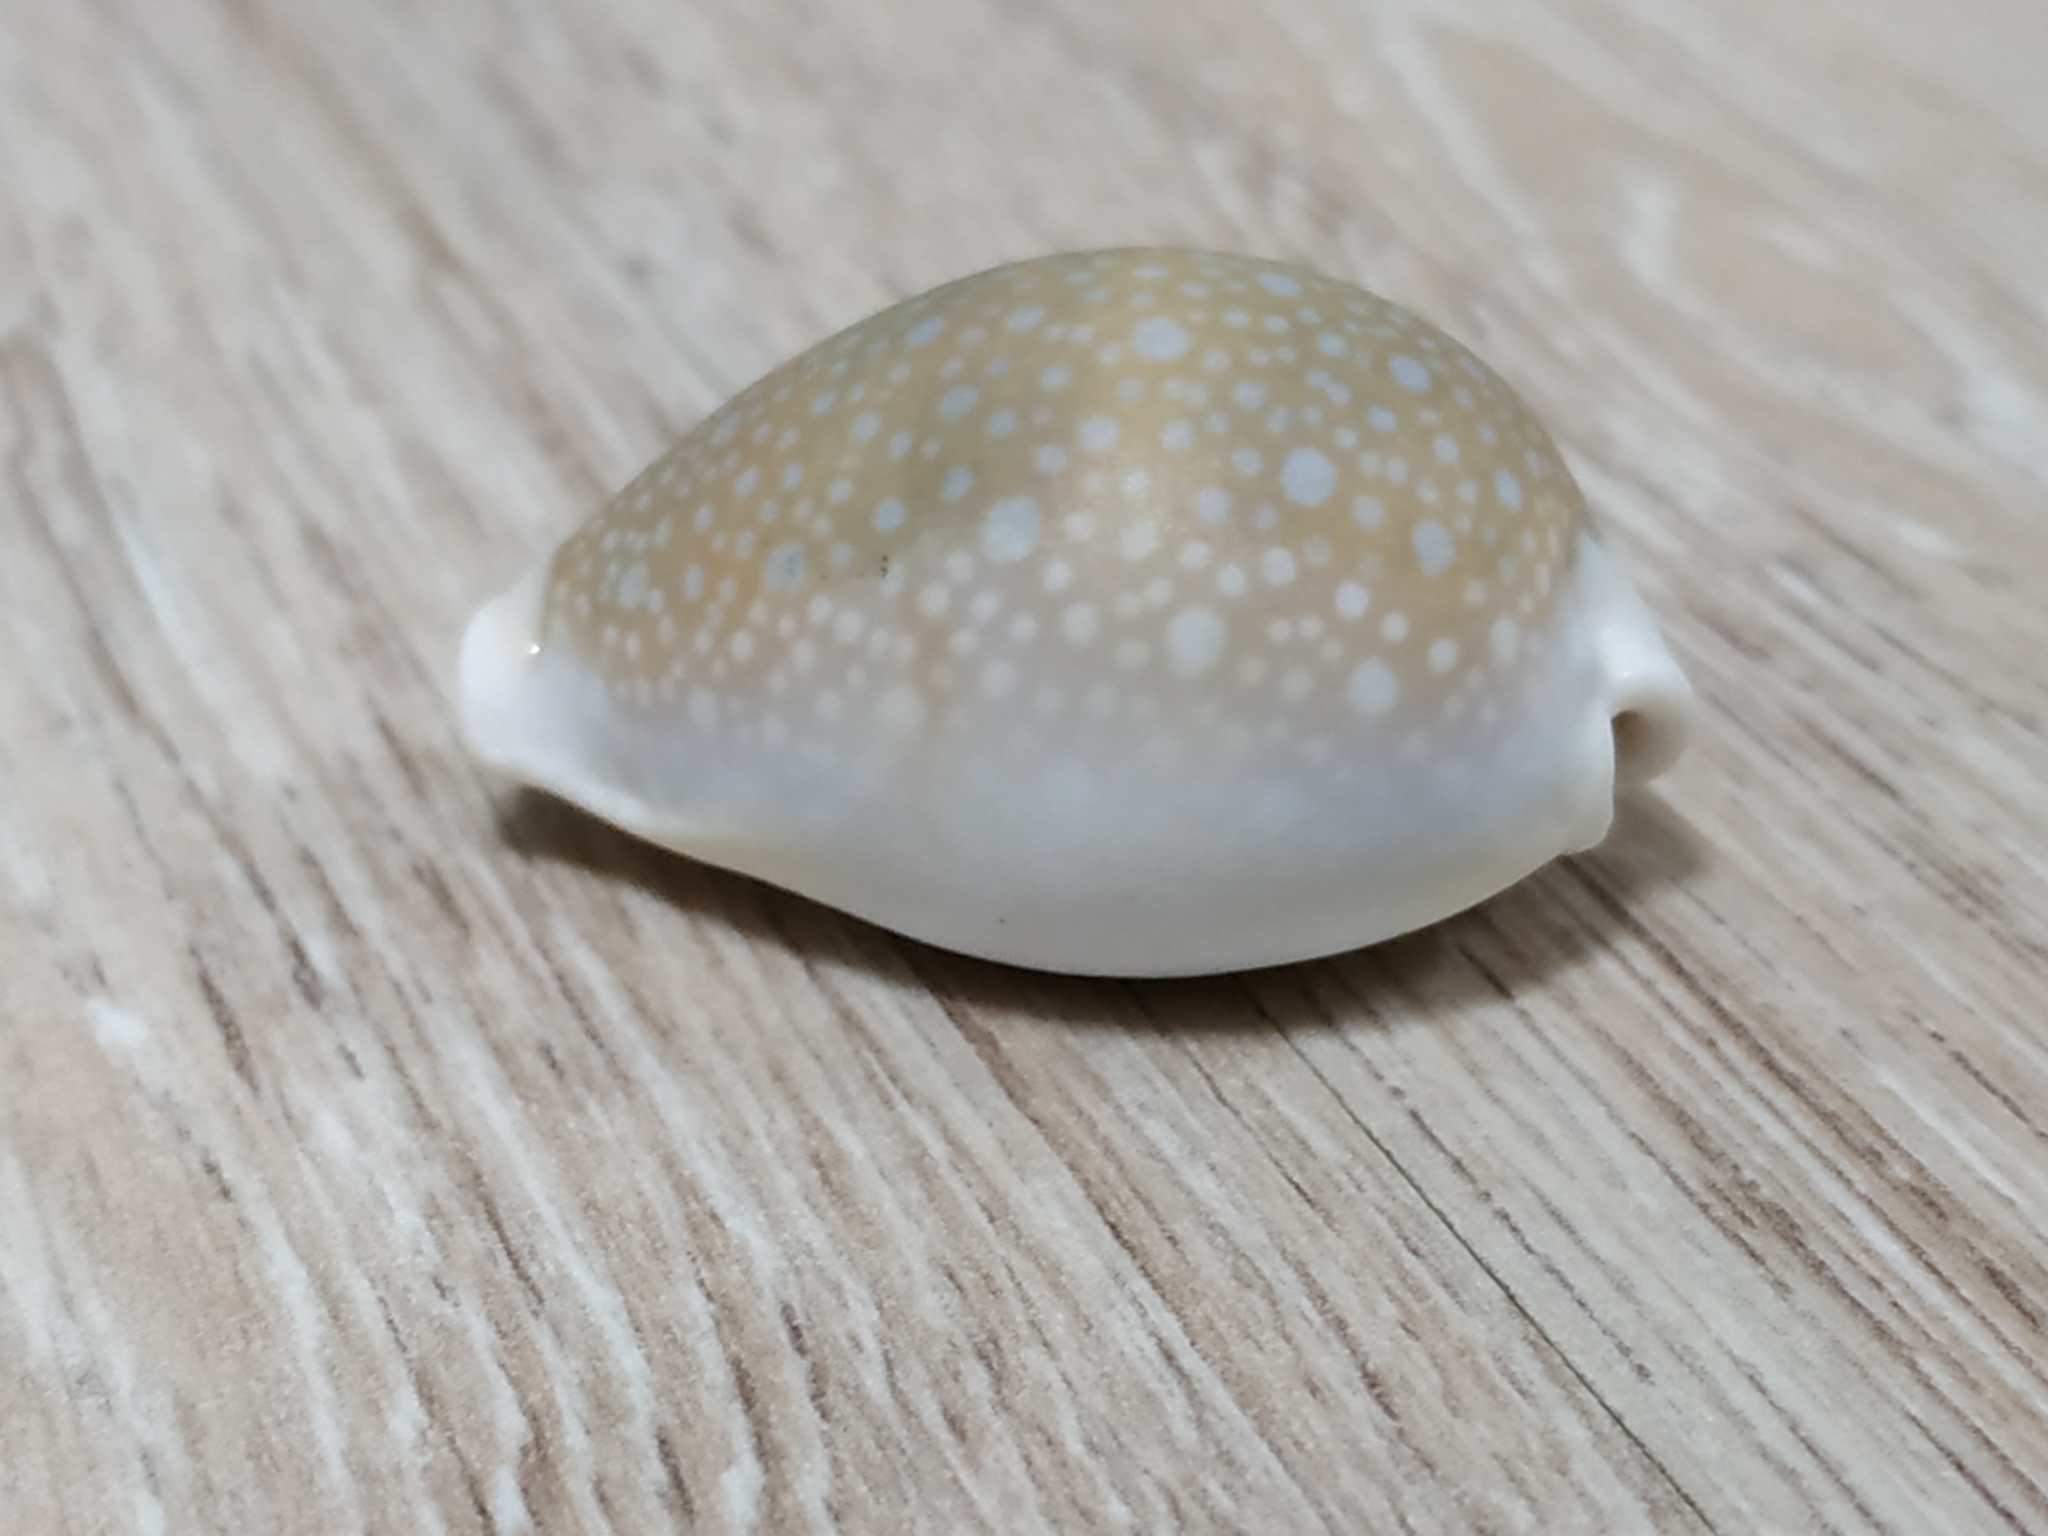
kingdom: Animalia
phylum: Mollusca
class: Gastropoda
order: Littorinimorpha
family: Cypraeidae
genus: Naria
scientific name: Naria miliaris
